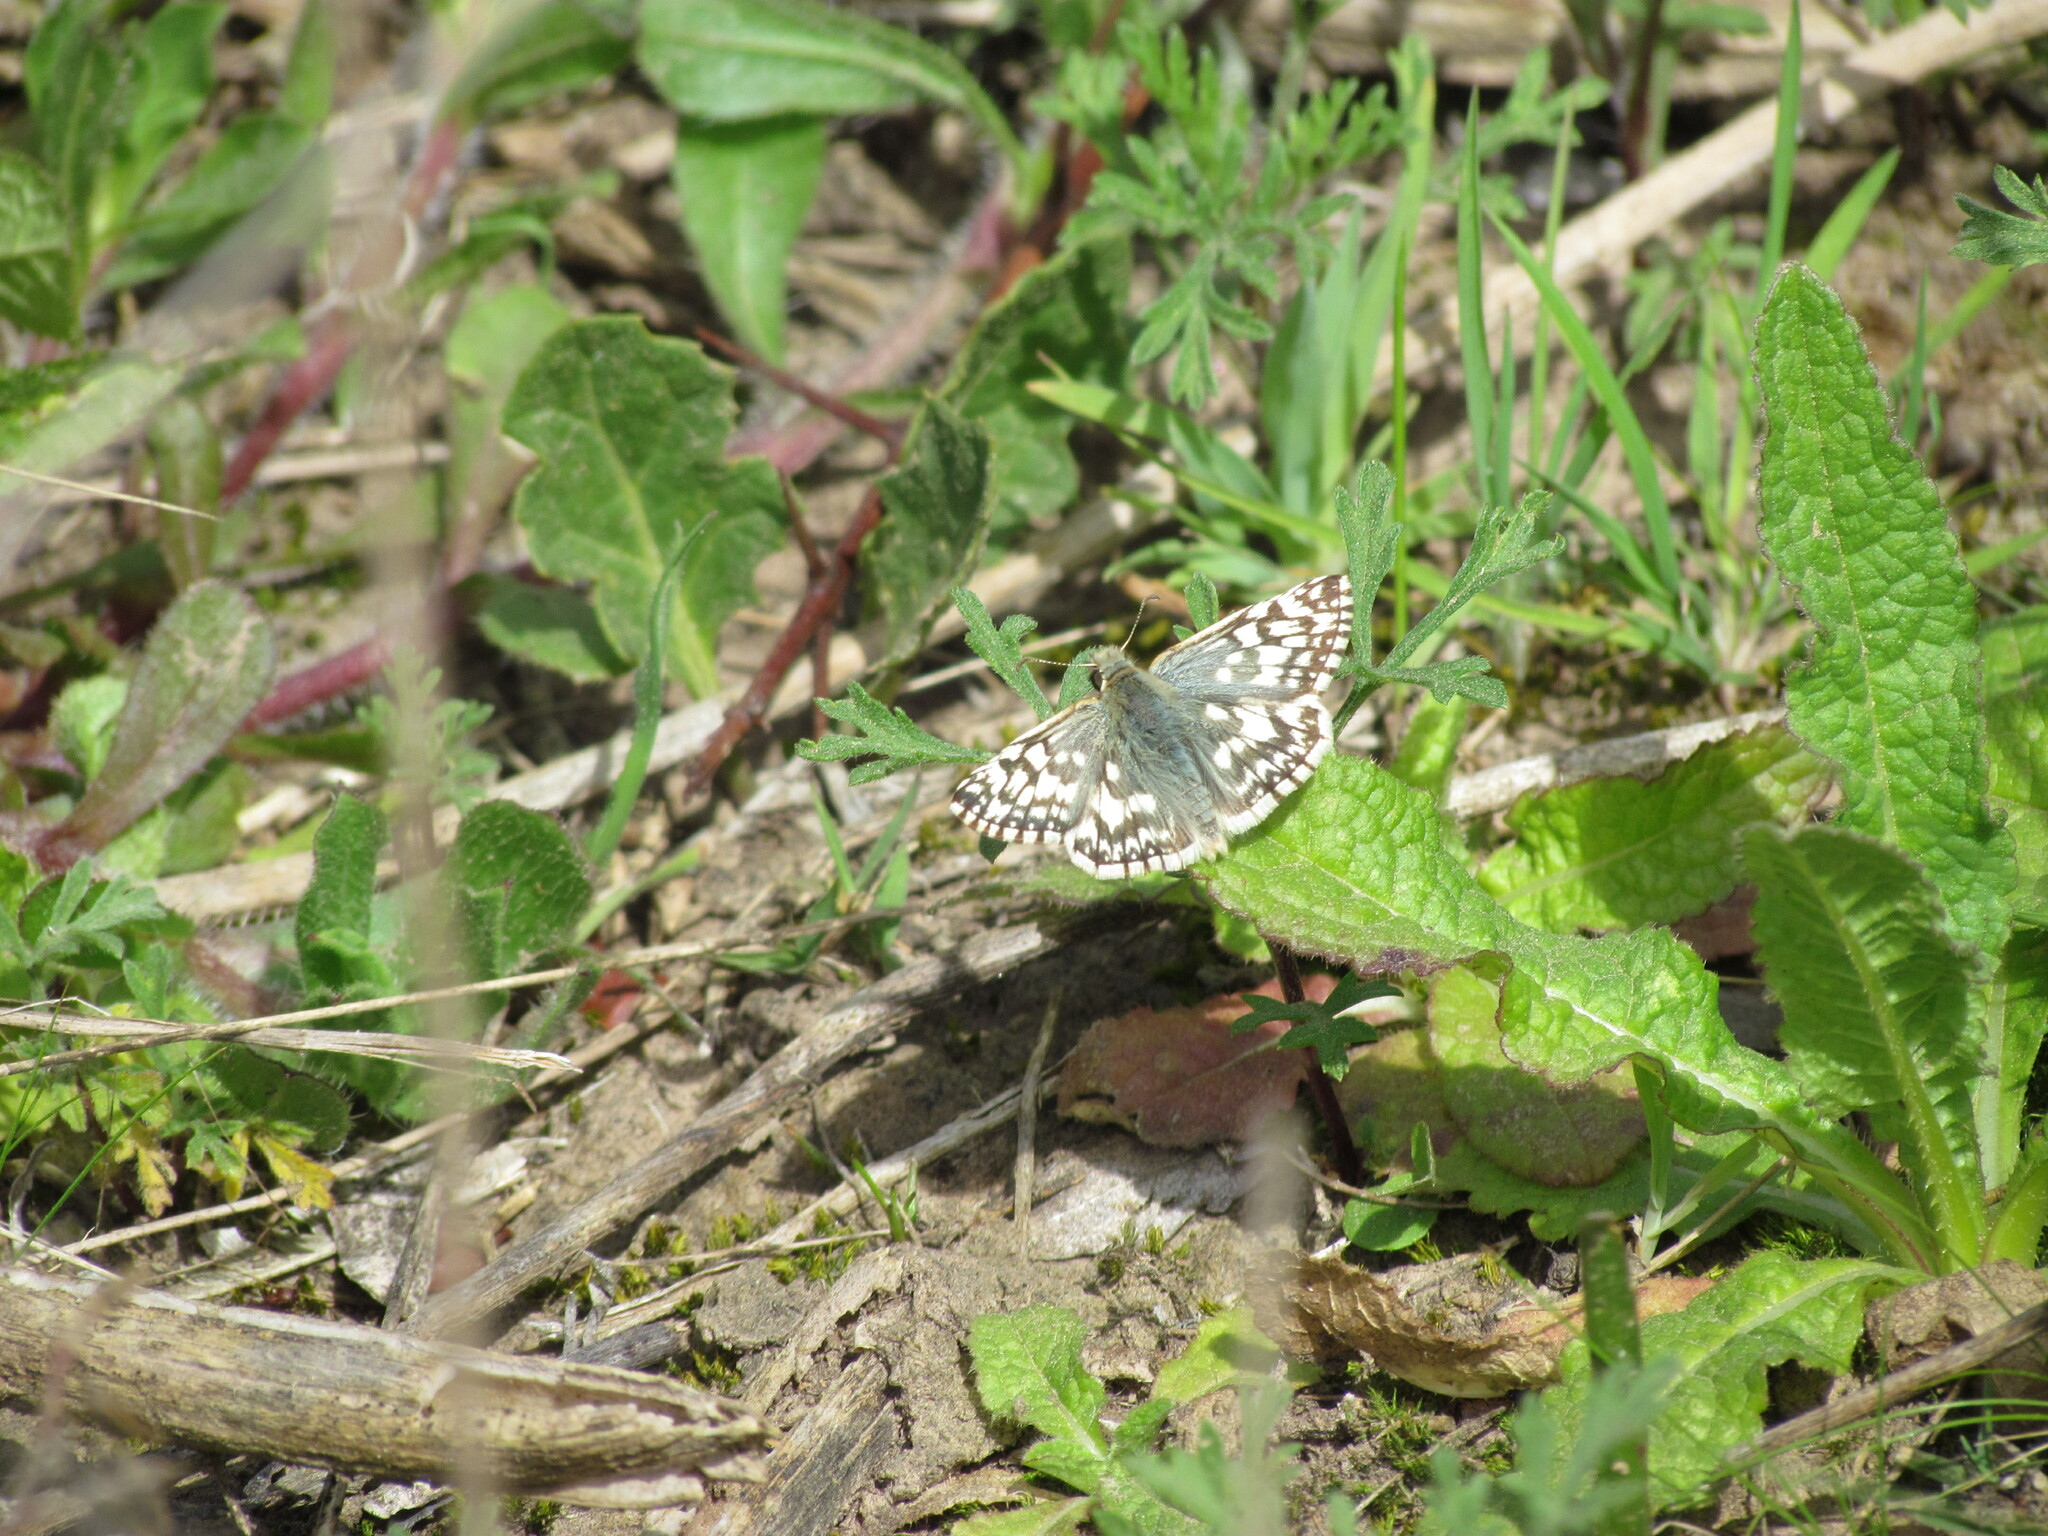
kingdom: Animalia
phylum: Arthropoda
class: Insecta
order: Lepidoptera
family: Hesperiidae
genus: Heliopetes
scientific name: Heliopetes americanus
